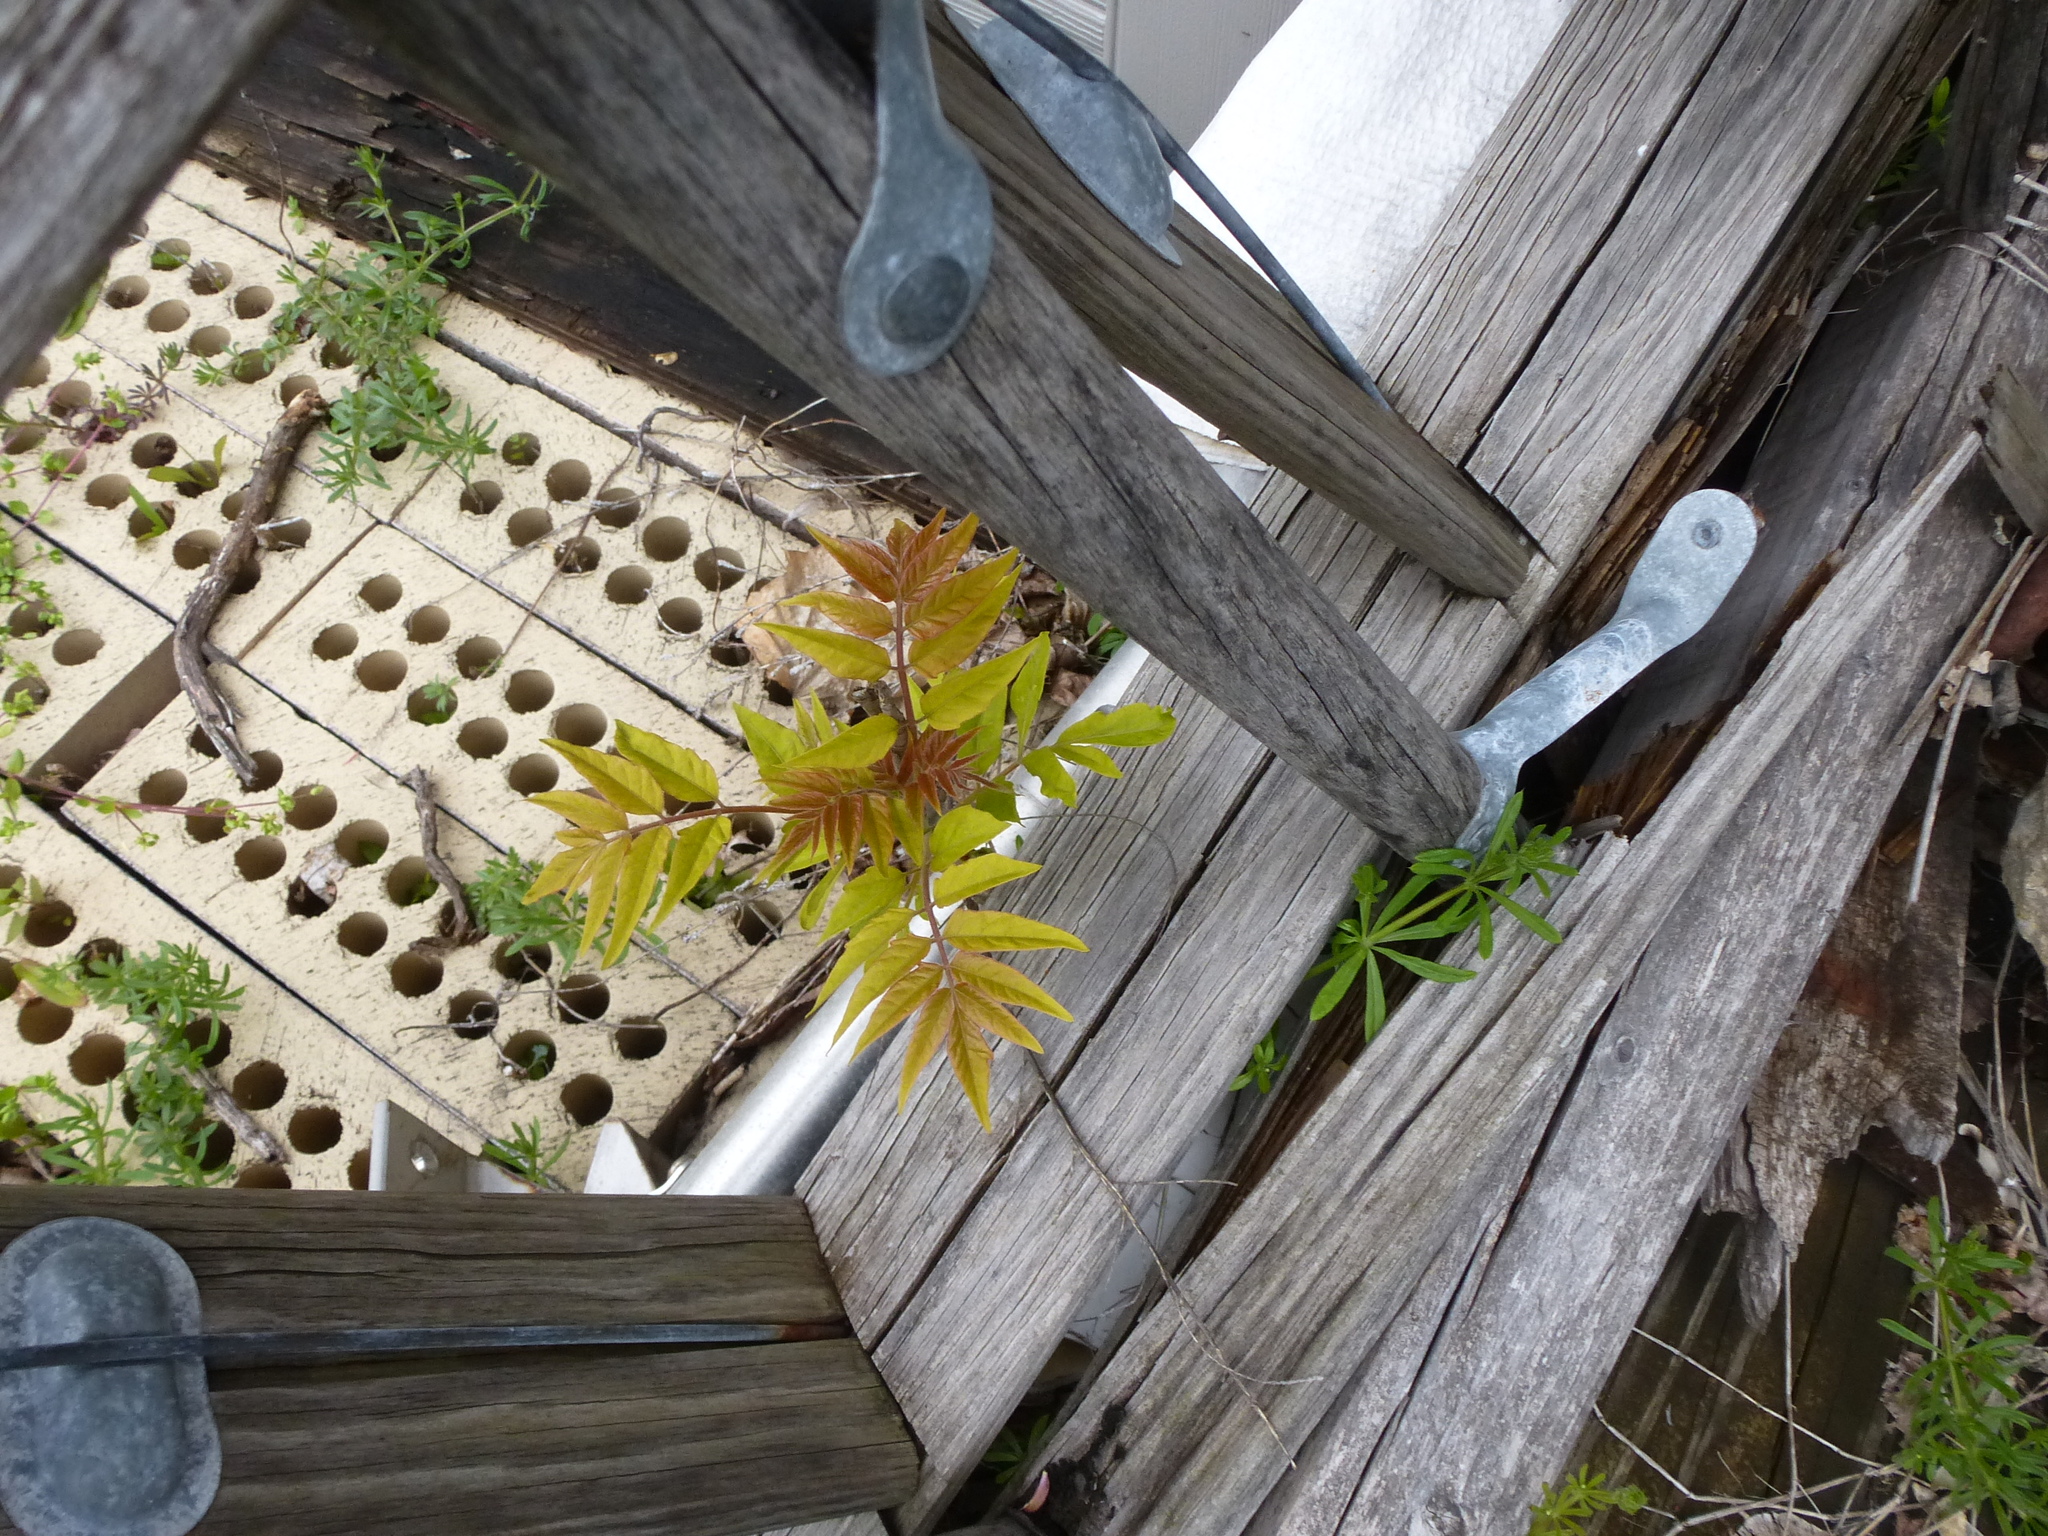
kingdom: Plantae
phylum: Tracheophyta
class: Magnoliopsida
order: Sapindales
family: Simaroubaceae
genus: Ailanthus
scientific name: Ailanthus altissima
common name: Tree-of-heaven
